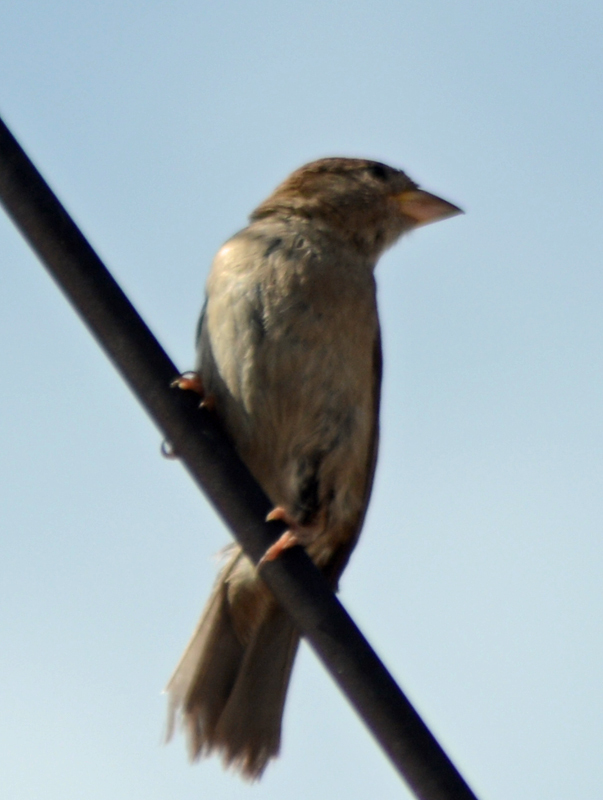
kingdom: Animalia
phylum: Chordata
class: Aves
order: Passeriformes
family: Passeridae
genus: Passer
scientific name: Passer domesticus
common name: House sparrow
